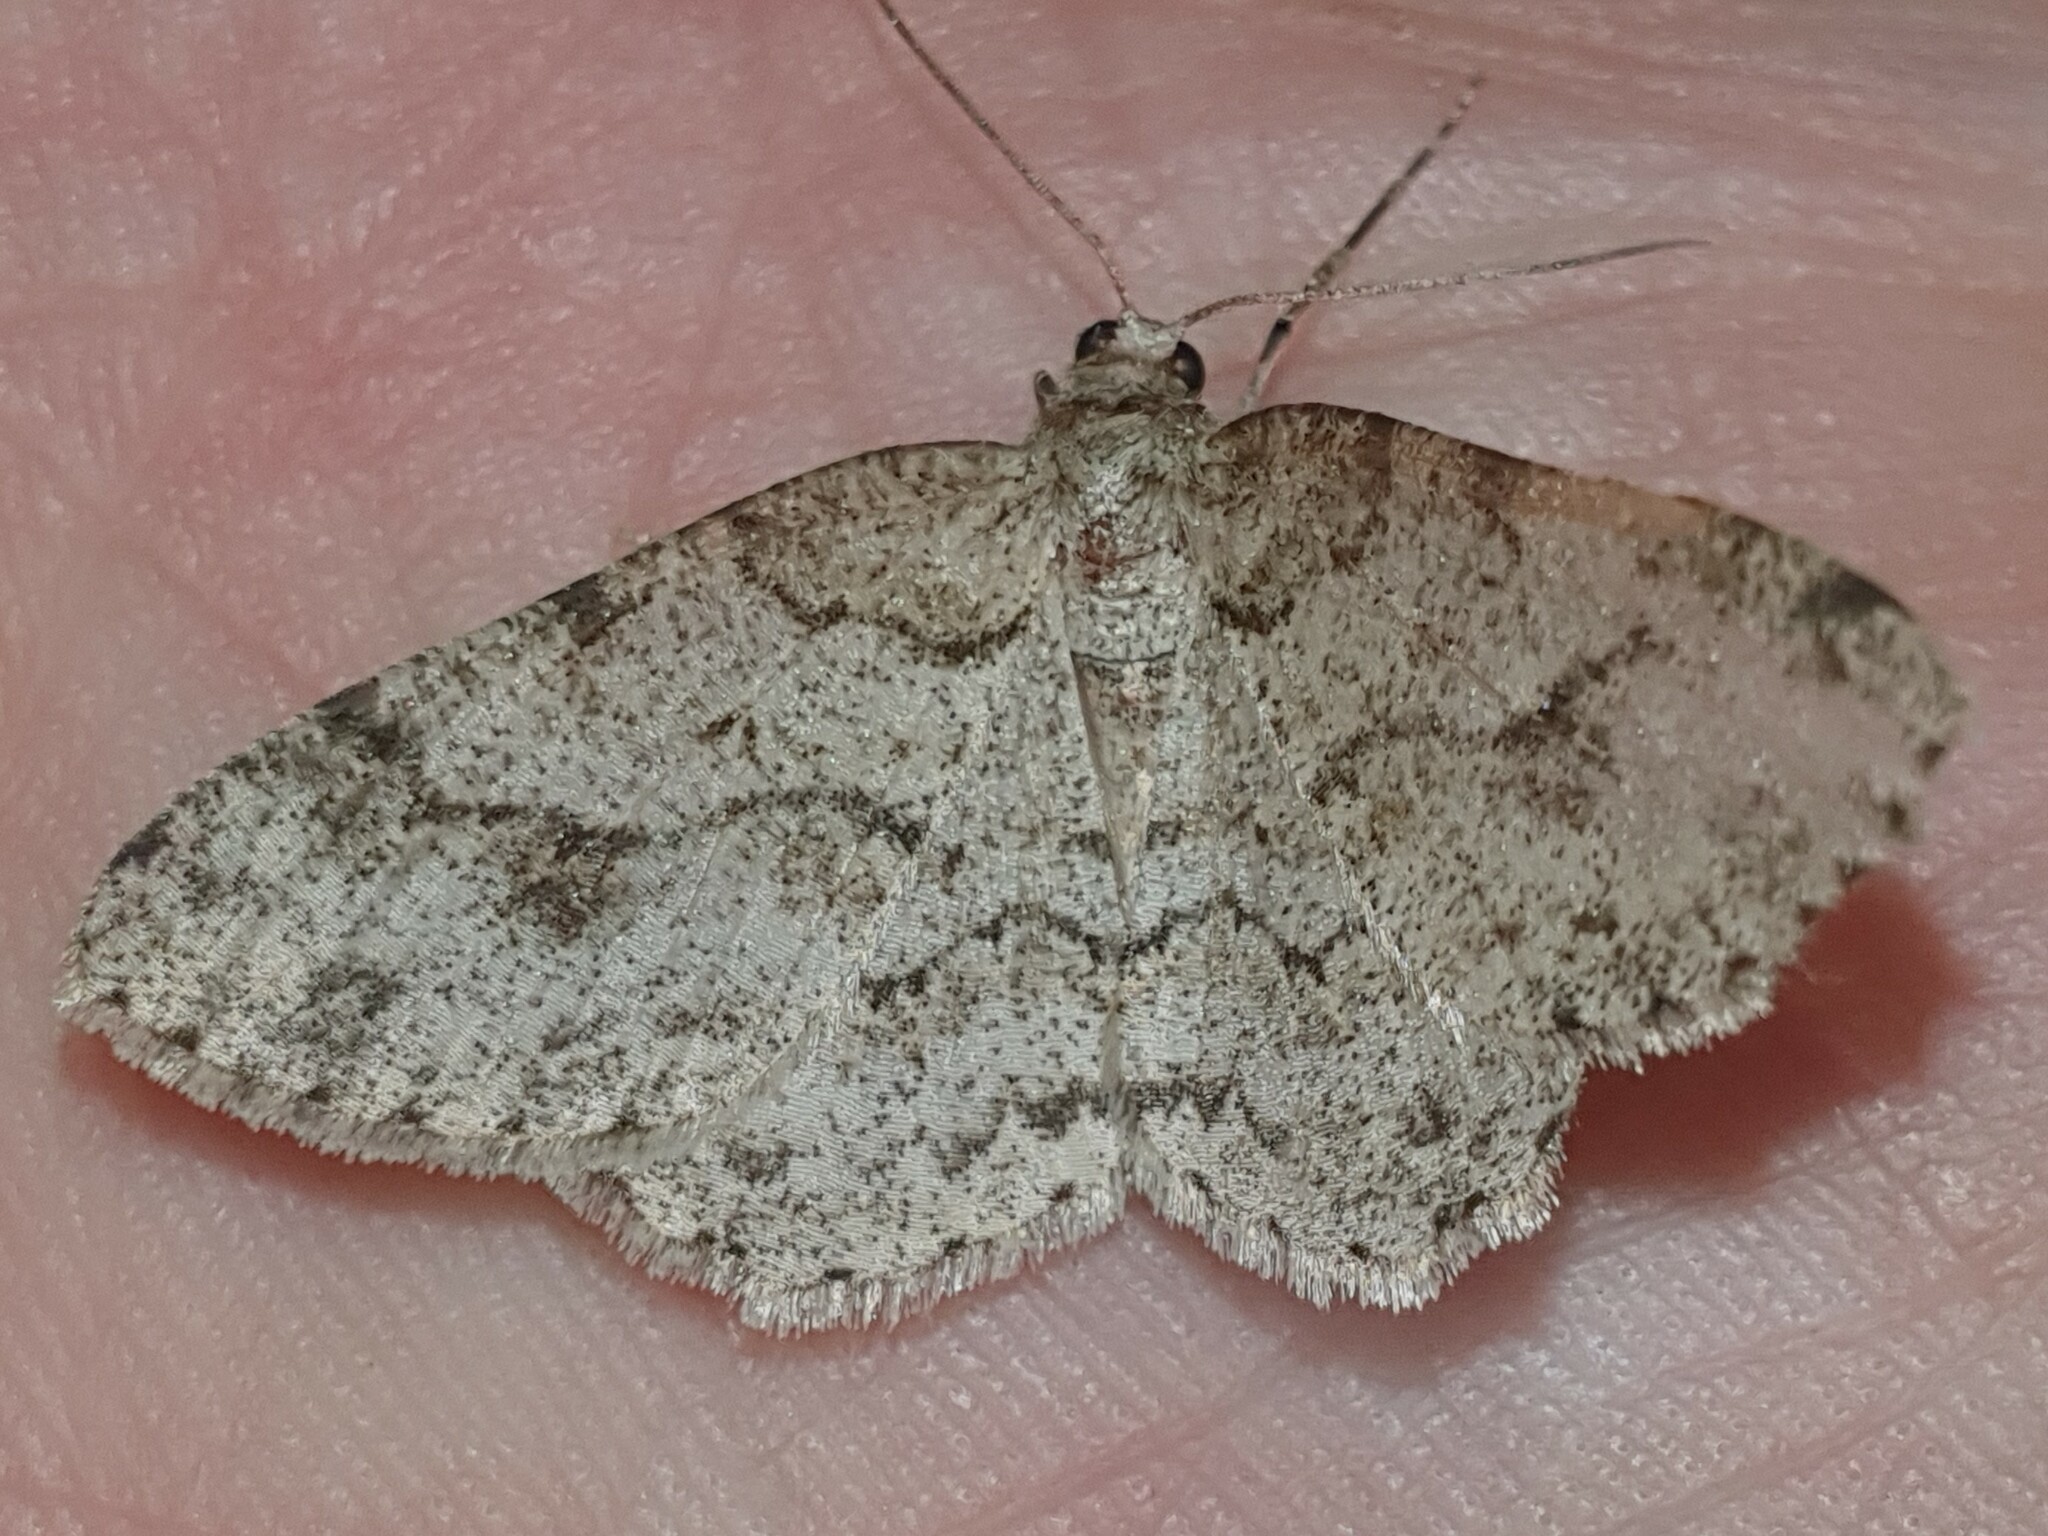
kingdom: Animalia
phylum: Arthropoda
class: Insecta
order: Lepidoptera
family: Geometridae
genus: Ectropis
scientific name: Ectropis crepuscularia
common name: Engrailed
